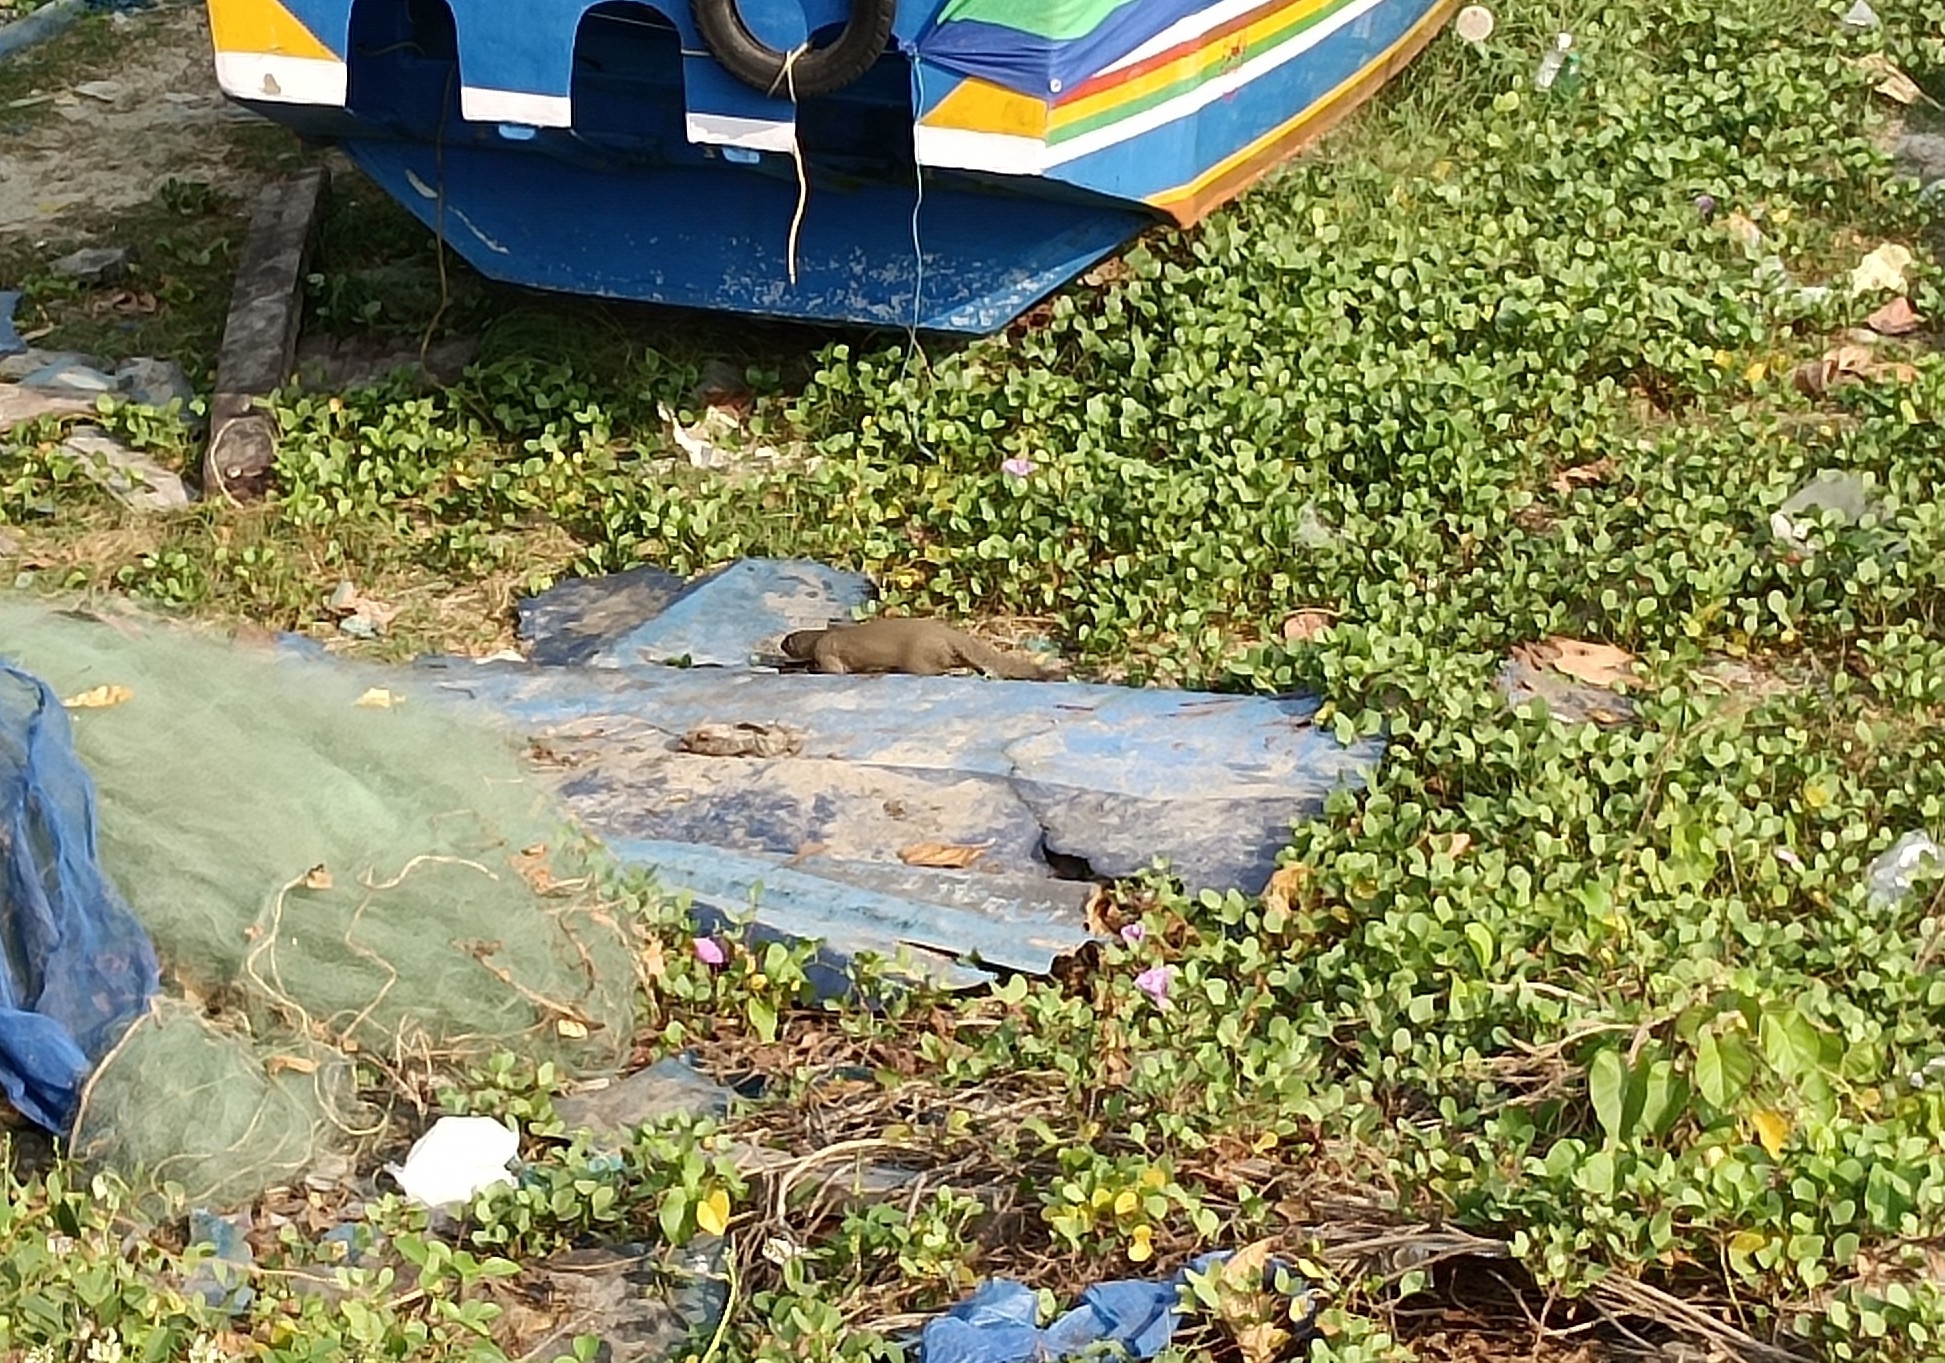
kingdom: Animalia
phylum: Chordata
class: Mammalia
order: Carnivora
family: Herpestidae
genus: Herpestes
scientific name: Herpestes edwardsi
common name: Indian gray mongoose
